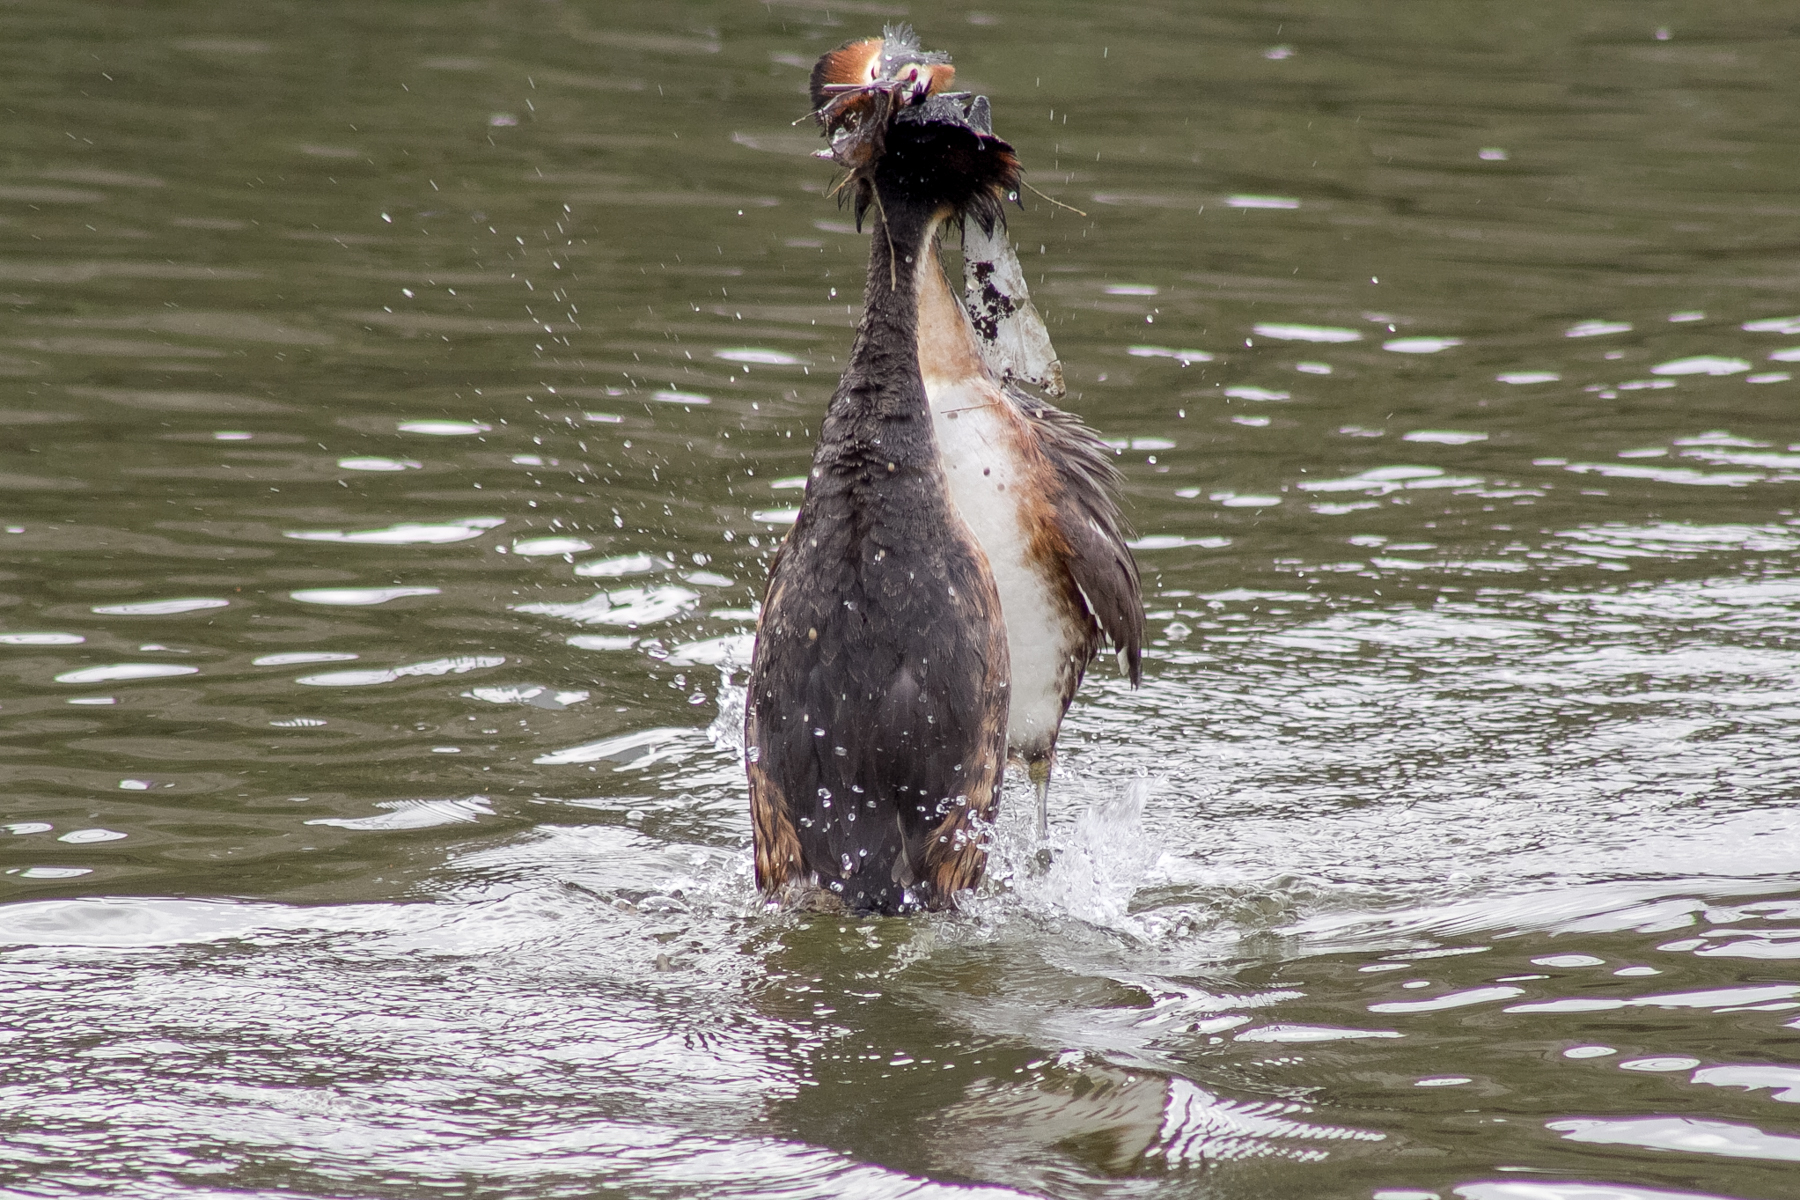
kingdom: Animalia
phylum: Chordata
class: Aves
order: Podicipediformes
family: Podicipedidae
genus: Podiceps
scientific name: Podiceps cristatus
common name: Great crested grebe
